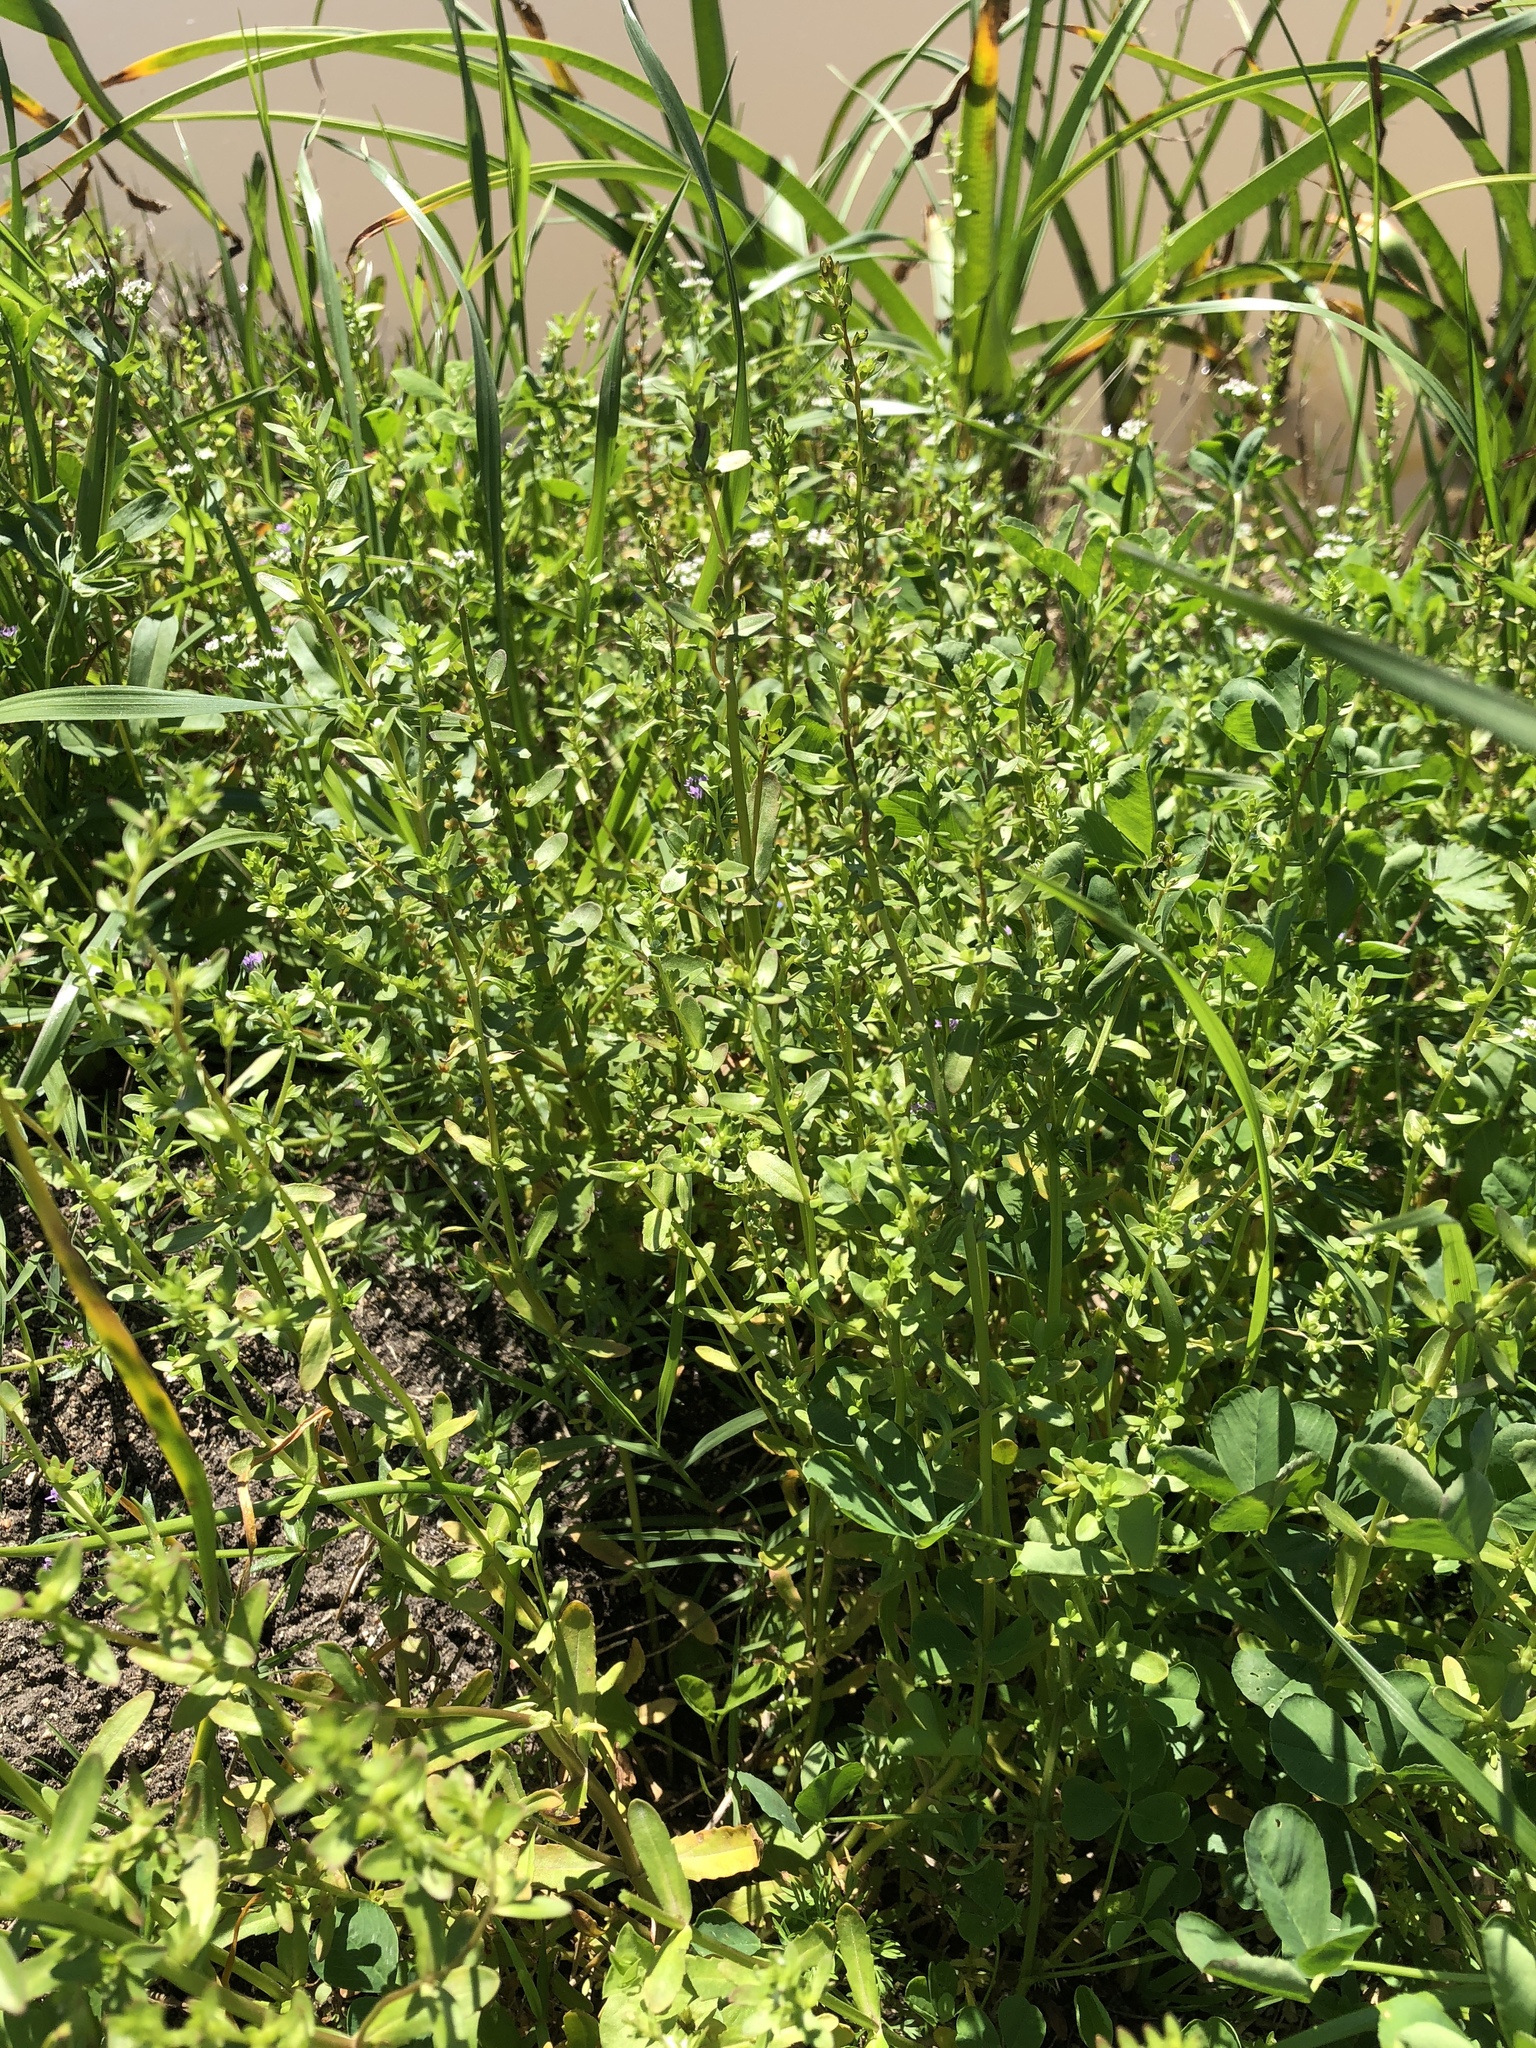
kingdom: Plantae
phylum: Tracheophyta
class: Magnoliopsida
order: Lamiales
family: Plantaginaceae
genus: Veronica
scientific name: Veronica peregrina
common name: Neckweed
